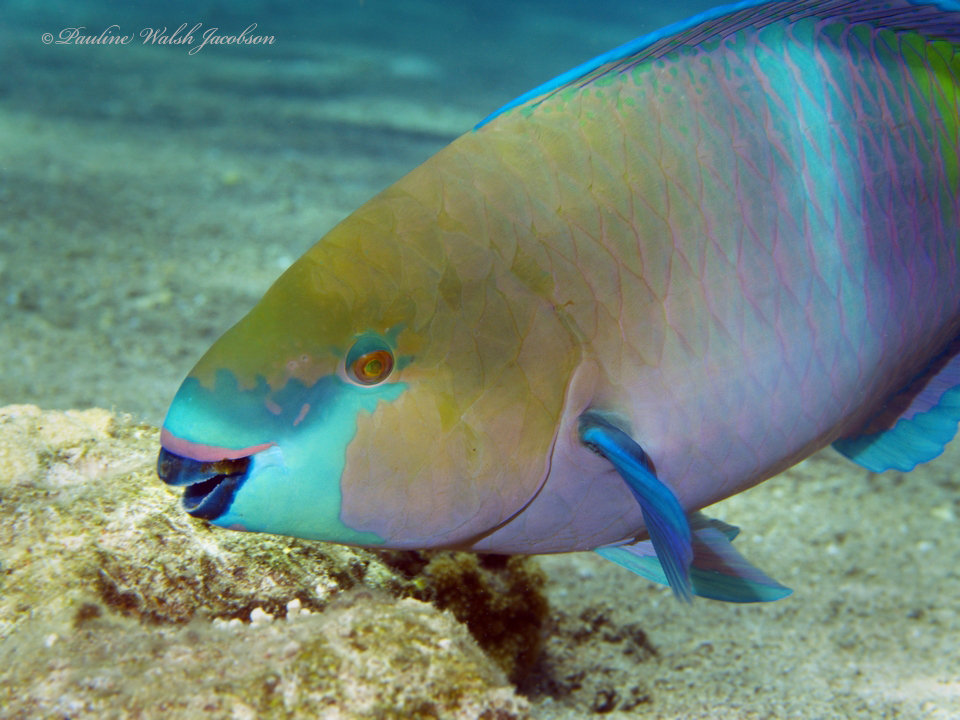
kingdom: Animalia
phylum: Chordata
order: Perciformes
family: Scaridae
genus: Scarus
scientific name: Scarus ferrugineus
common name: Rusty parrotfish
